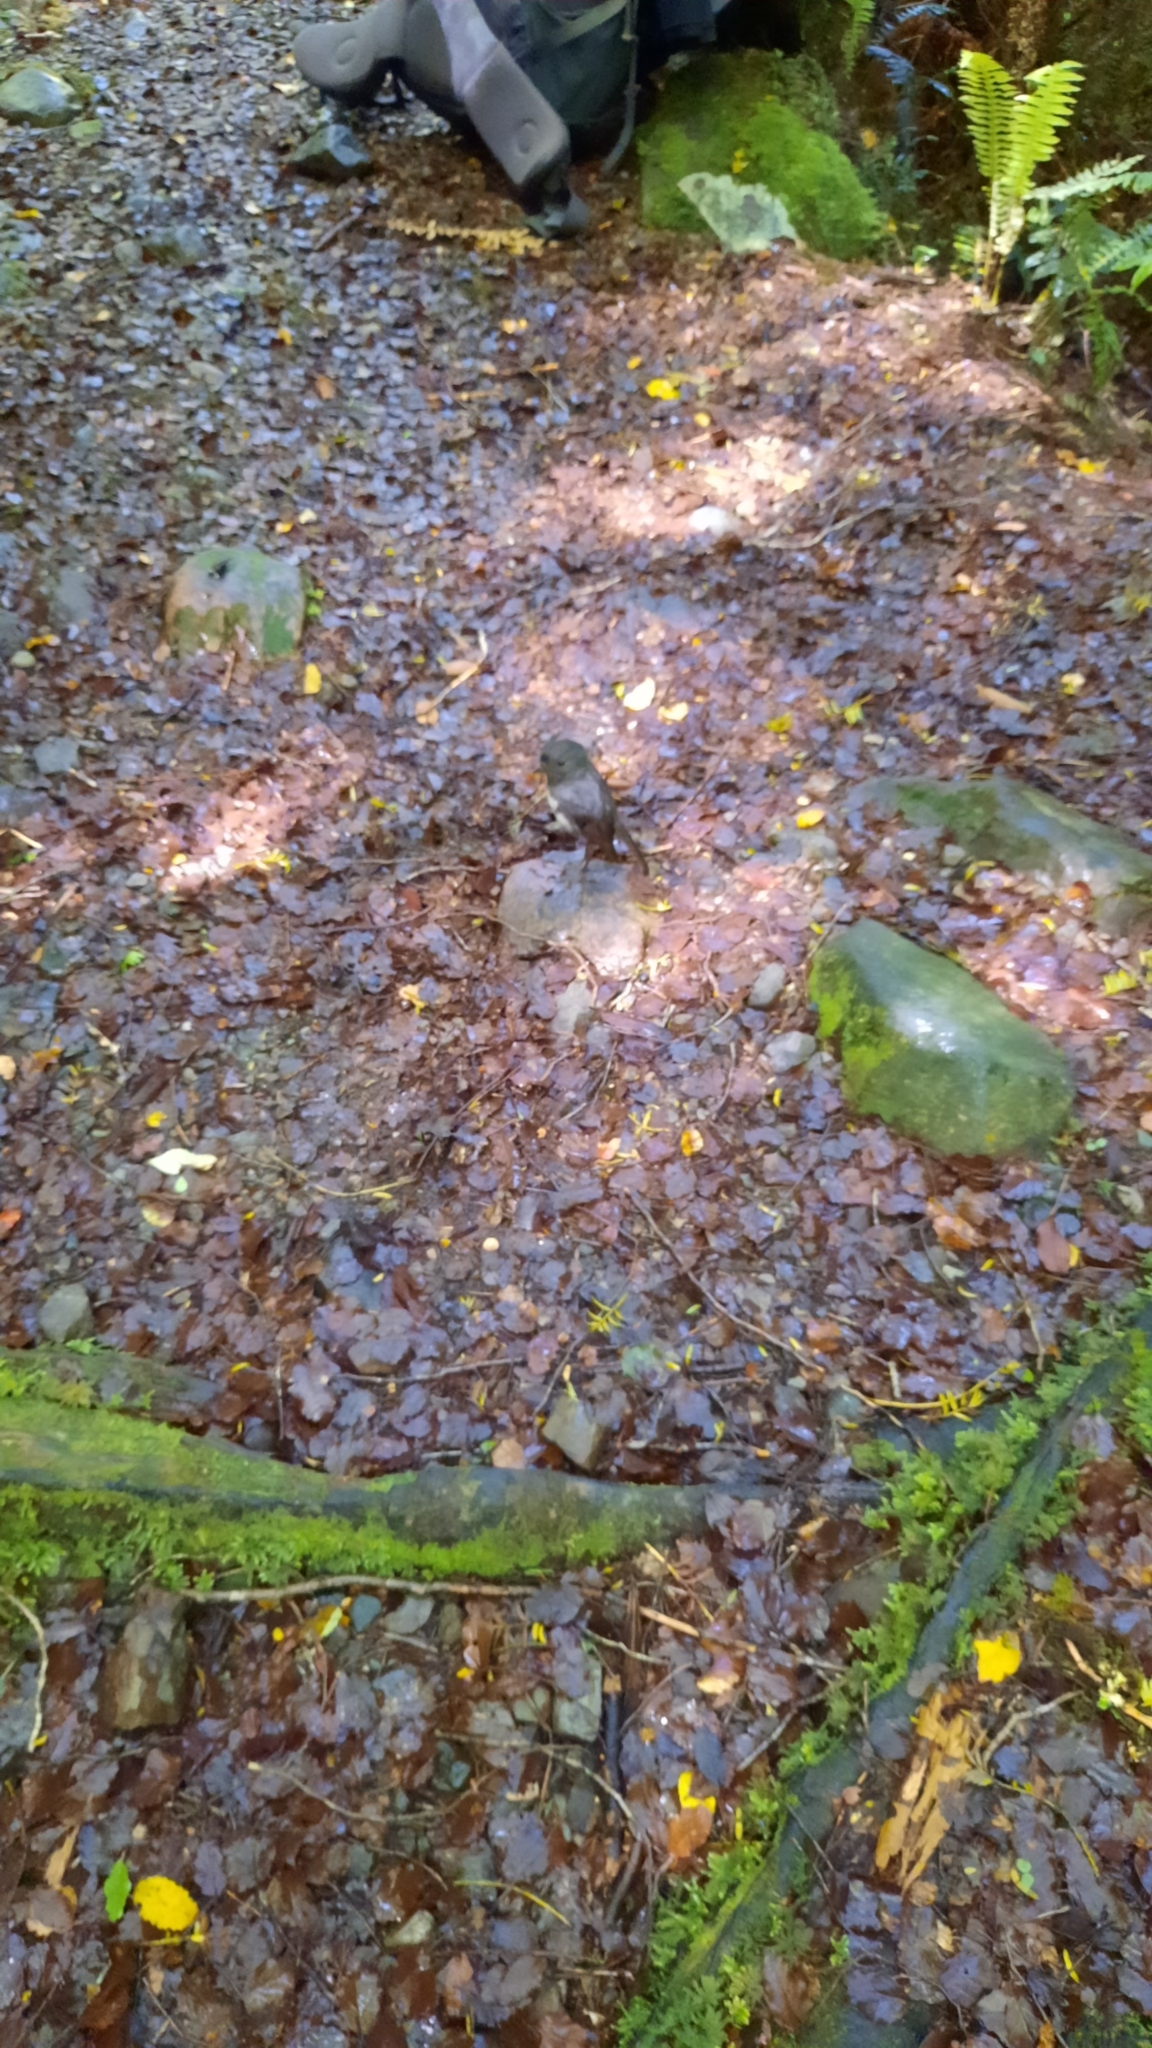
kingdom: Animalia
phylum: Chordata
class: Aves
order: Passeriformes
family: Petroicidae
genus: Petroica
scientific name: Petroica australis
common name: New zealand robin
